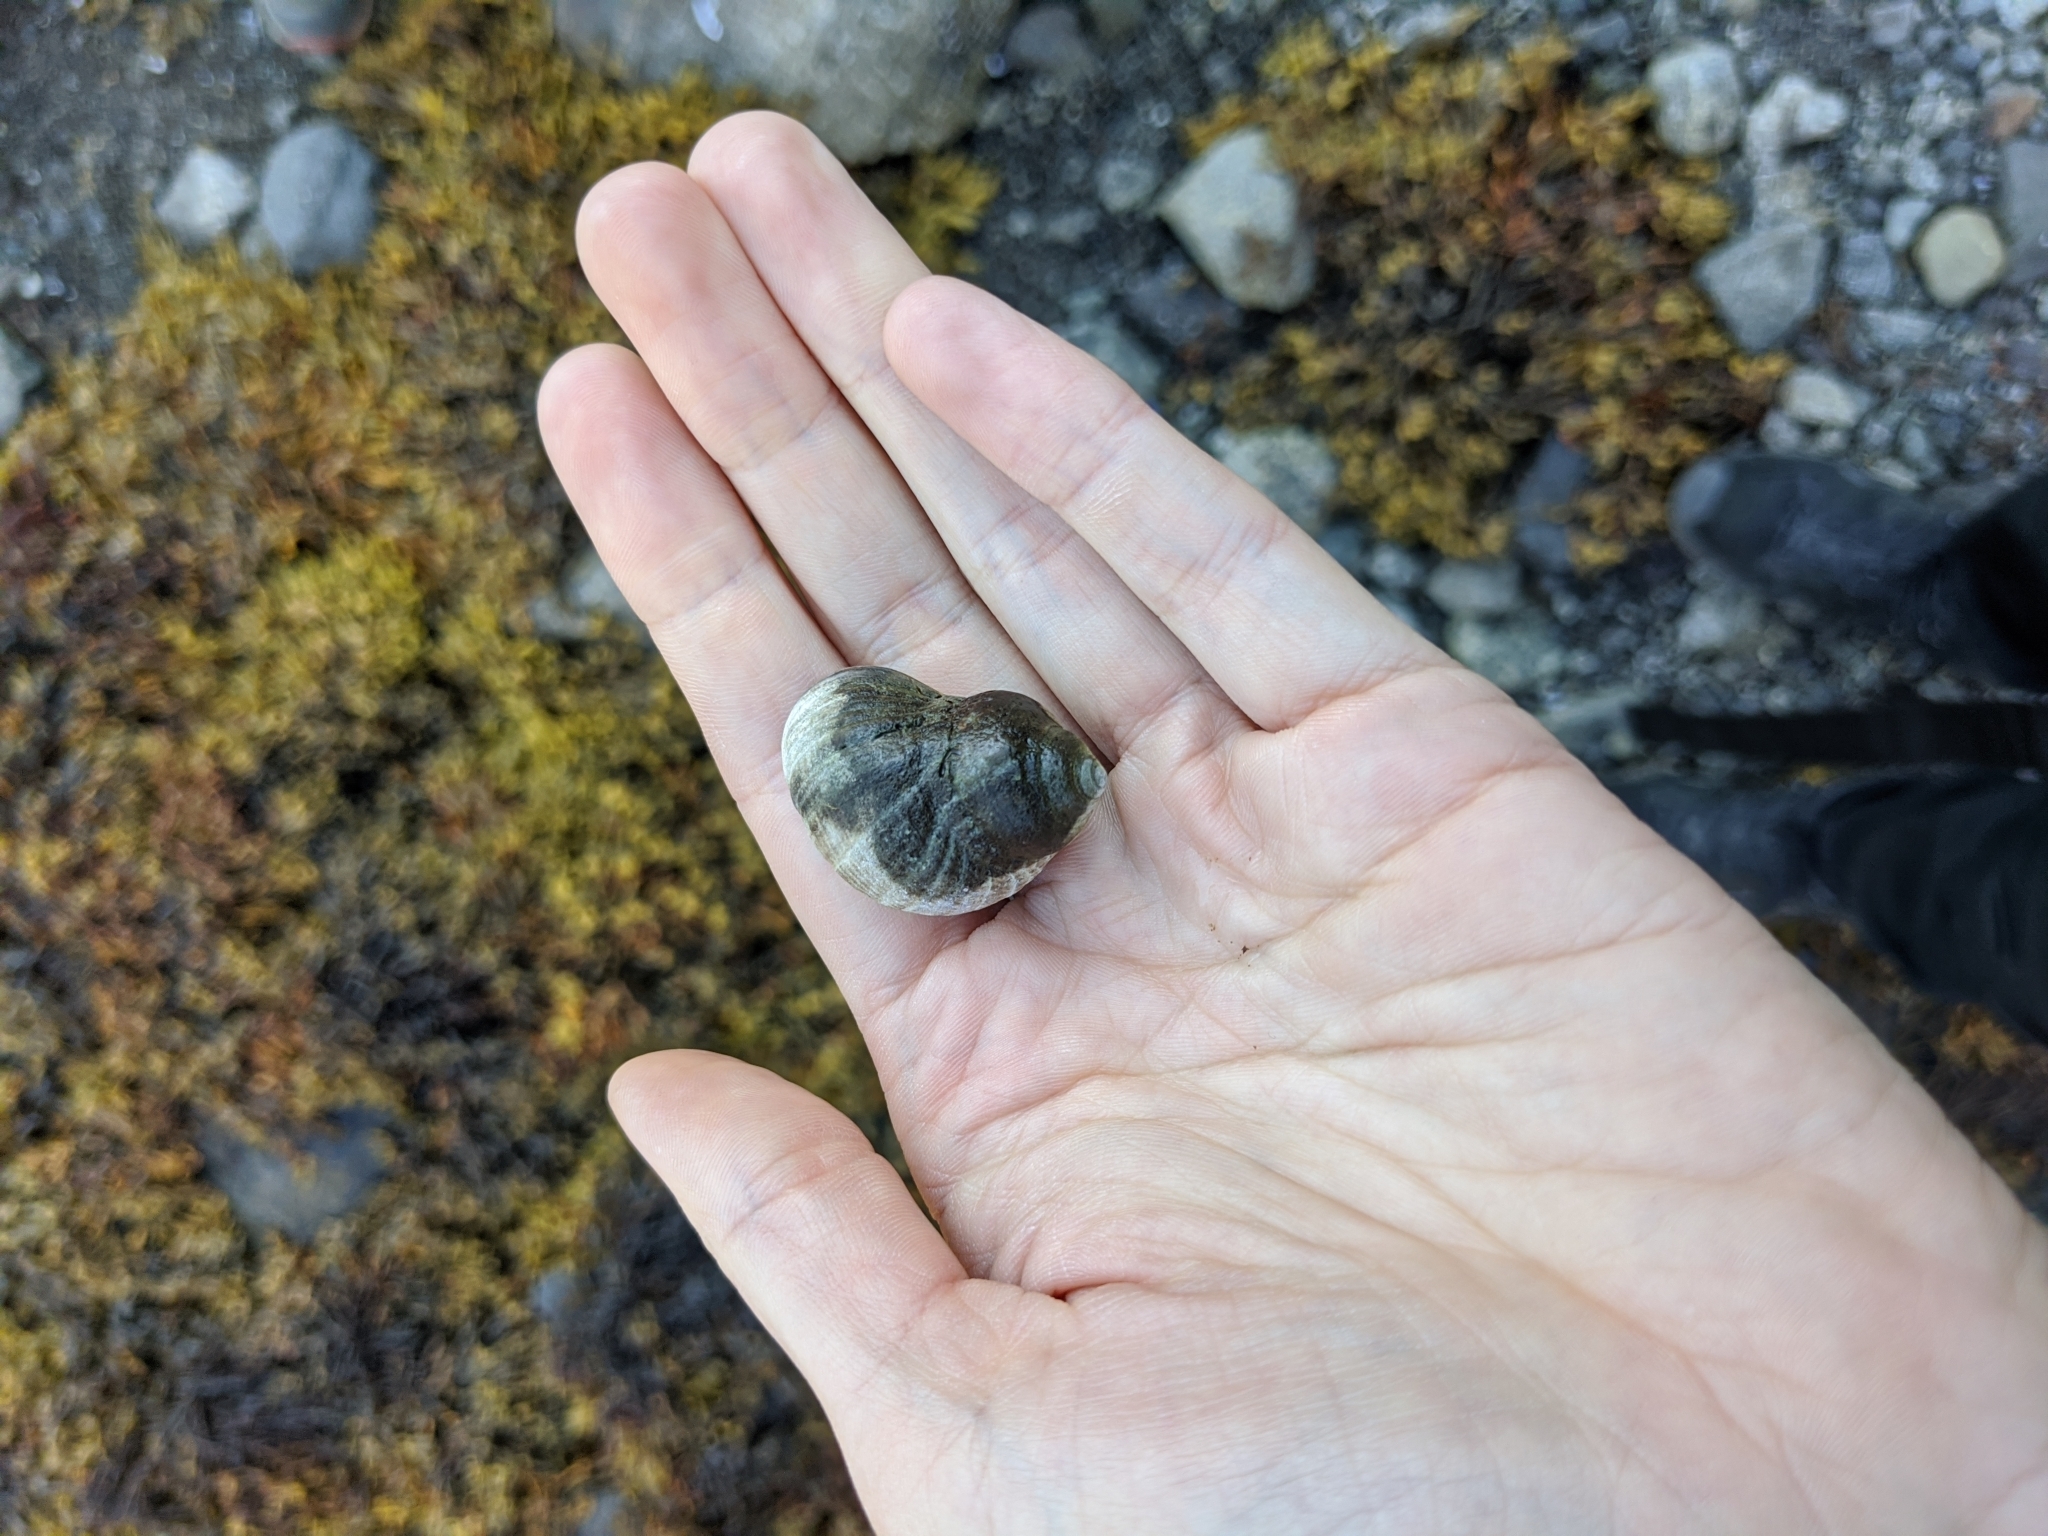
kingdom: Animalia
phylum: Mollusca
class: Gastropoda
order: Littorinimorpha
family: Littorinidae
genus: Littorina
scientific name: Littorina littorea
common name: Common periwinkle
